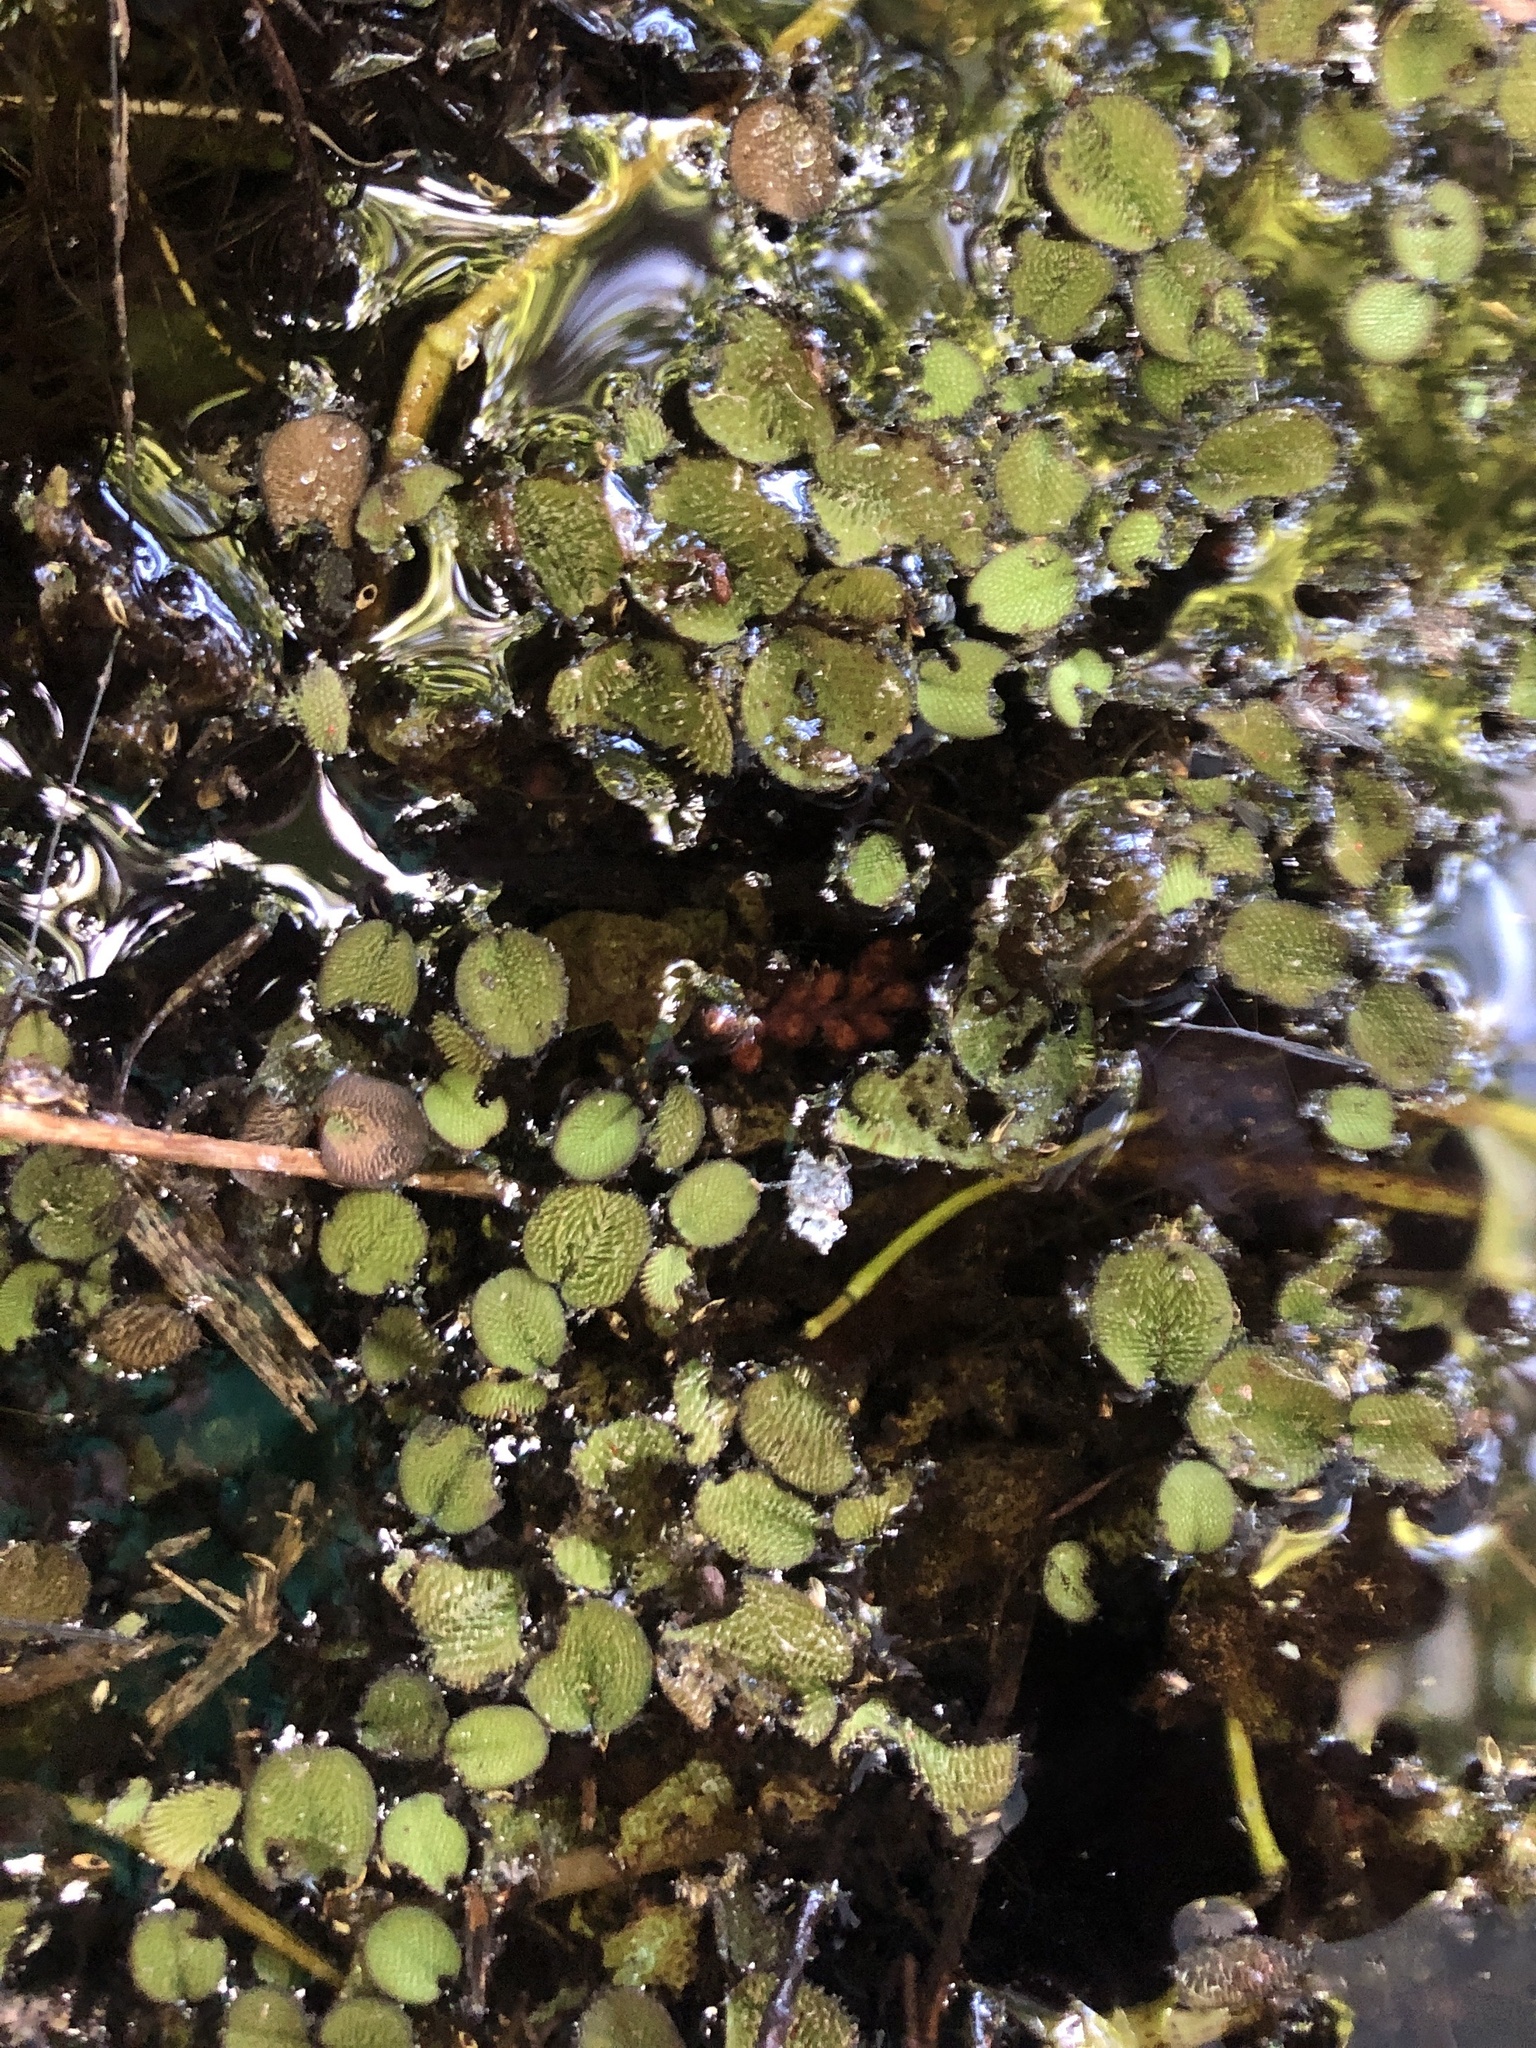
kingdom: Plantae
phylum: Tracheophyta
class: Polypodiopsida
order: Salviniales
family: Salviniaceae
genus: Salvinia
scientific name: Salvinia minima
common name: Water spangles
